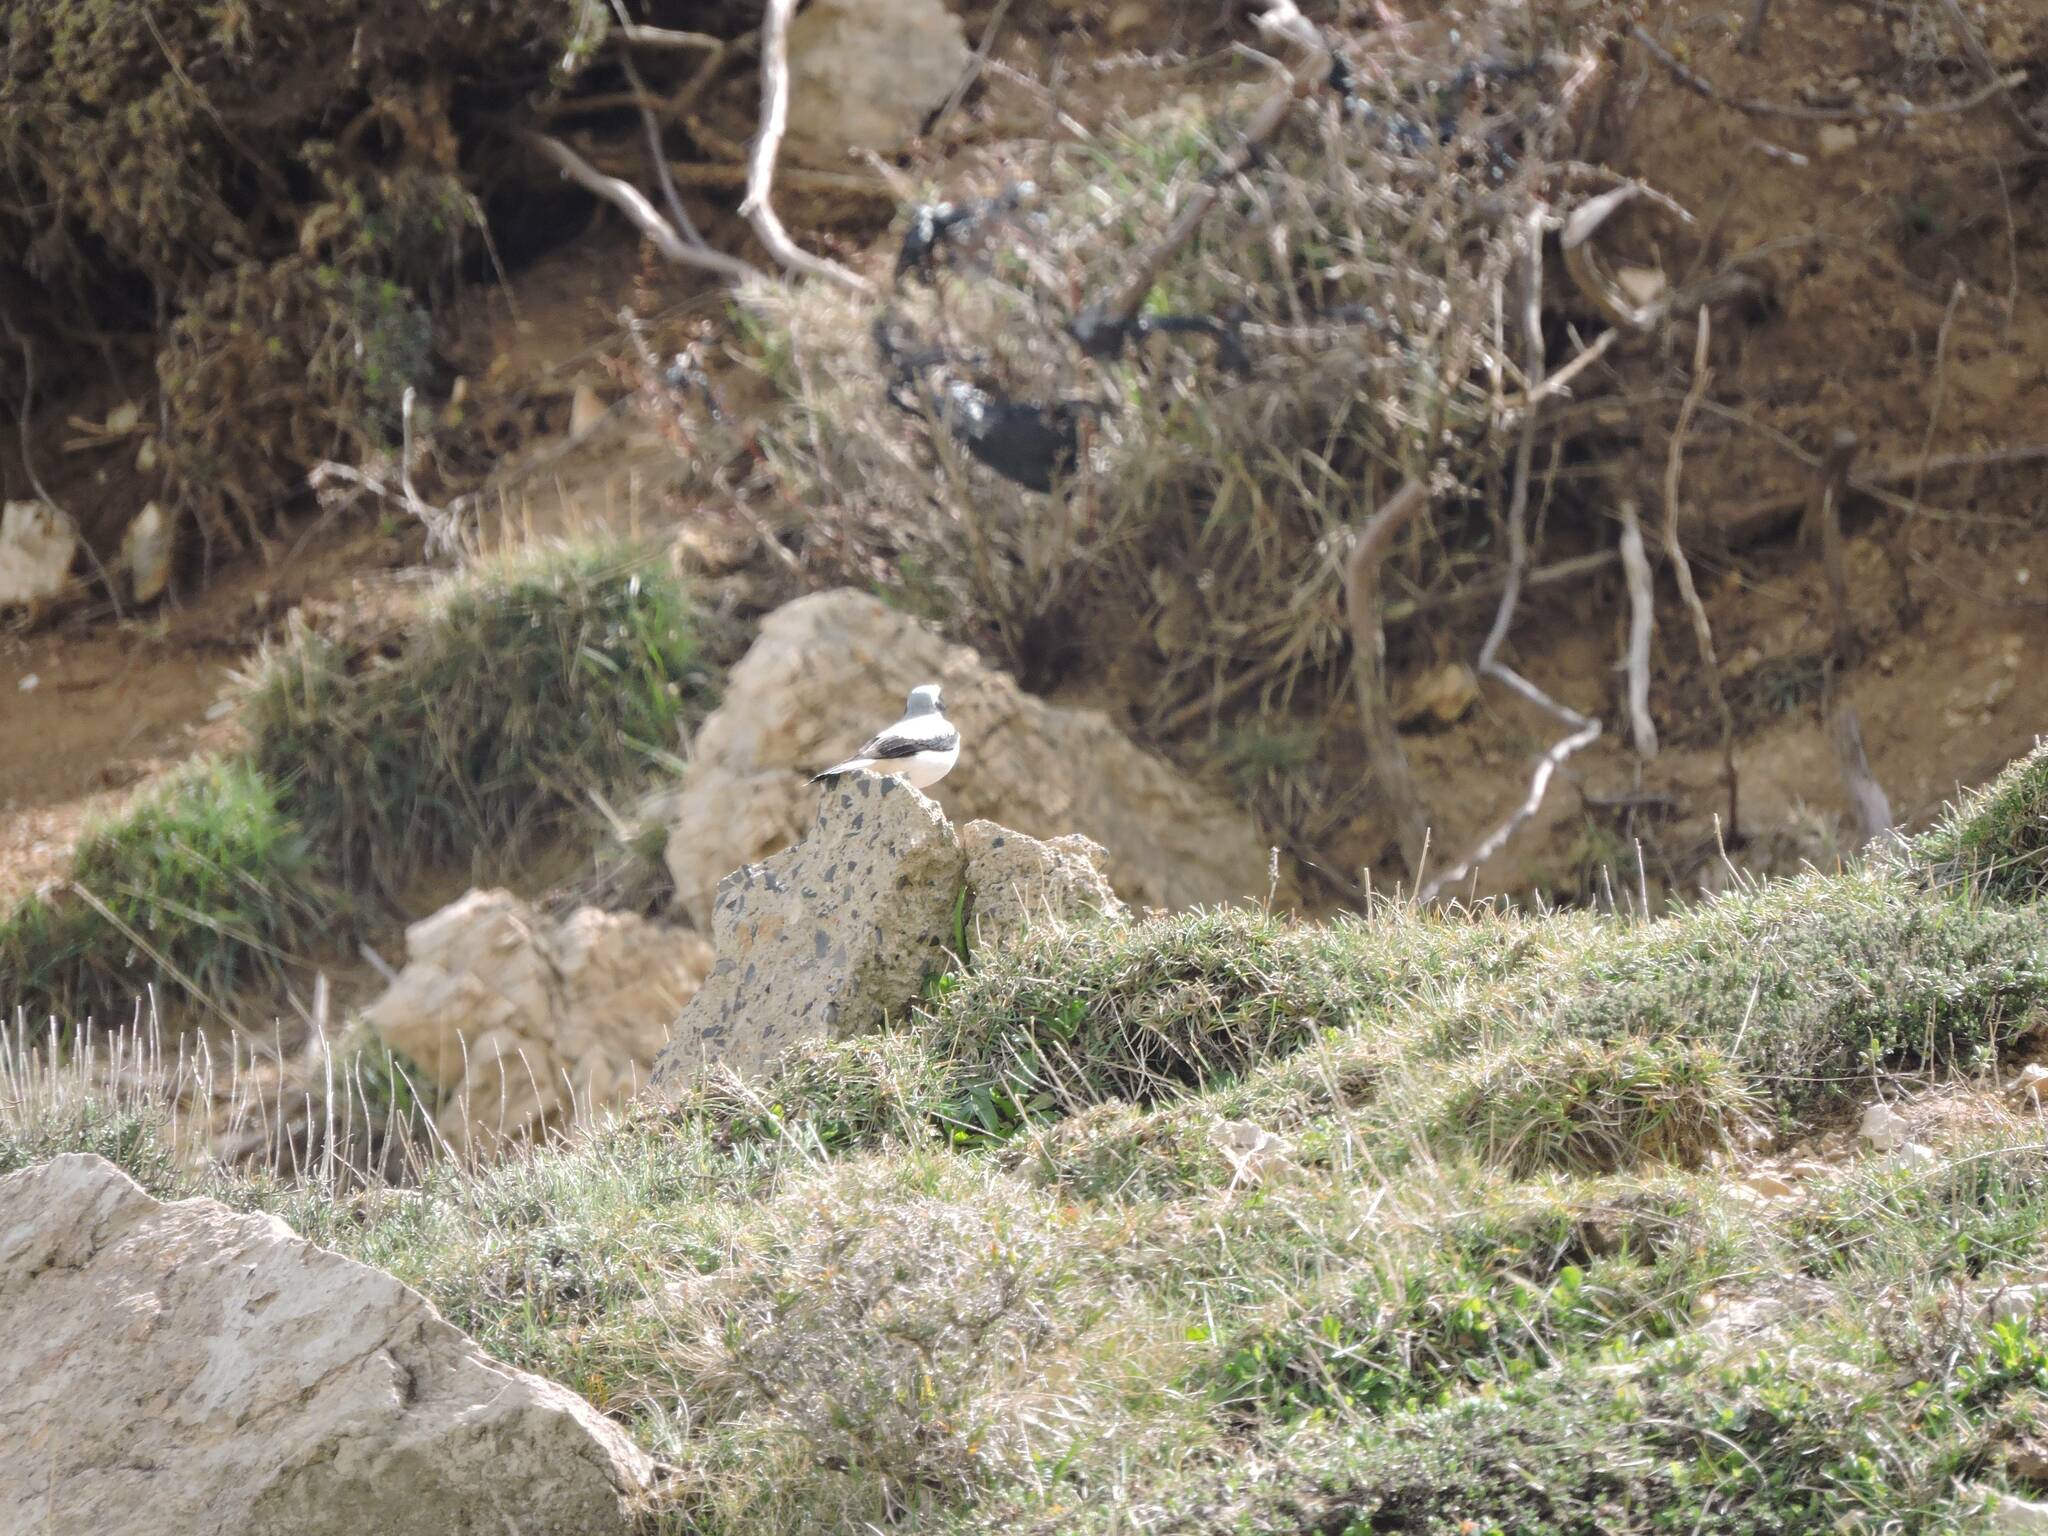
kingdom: Animalia
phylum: Chordata
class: Aves
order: Passeriformes
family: Muscicapidae
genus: Oenanthe
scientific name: Oenanthe oenanthe
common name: Northern wheatear
